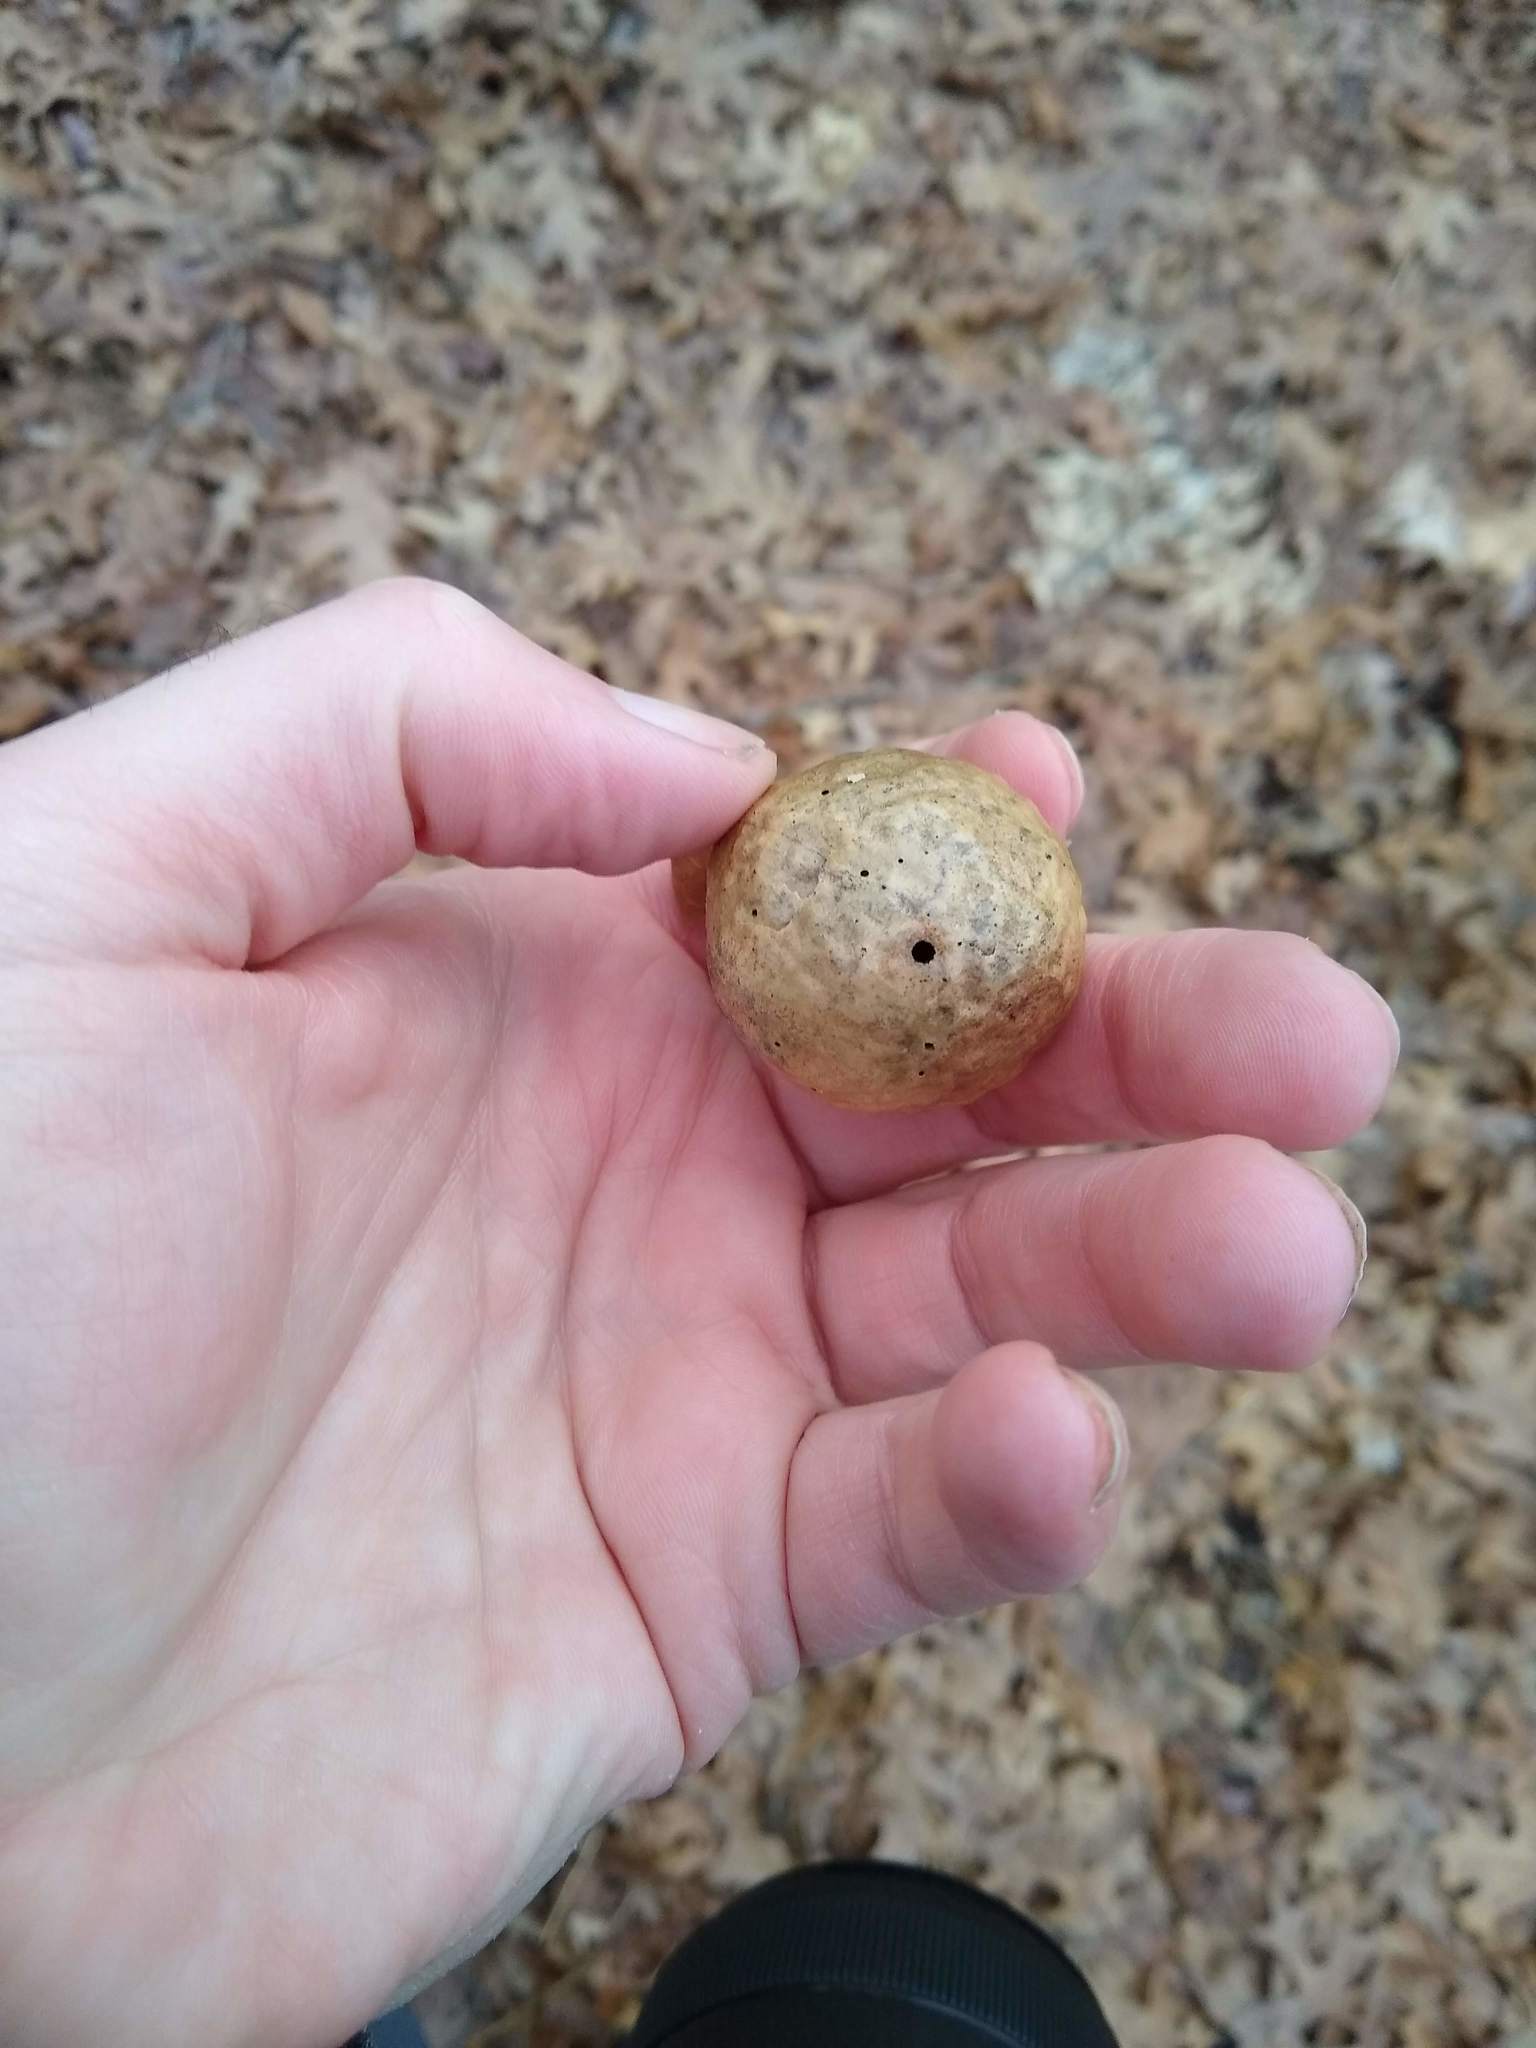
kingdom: Animalia
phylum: Arthropoda
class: Insecta
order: Hymenoptera
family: Cynipidae
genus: Amphibolips
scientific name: Amphibolips
